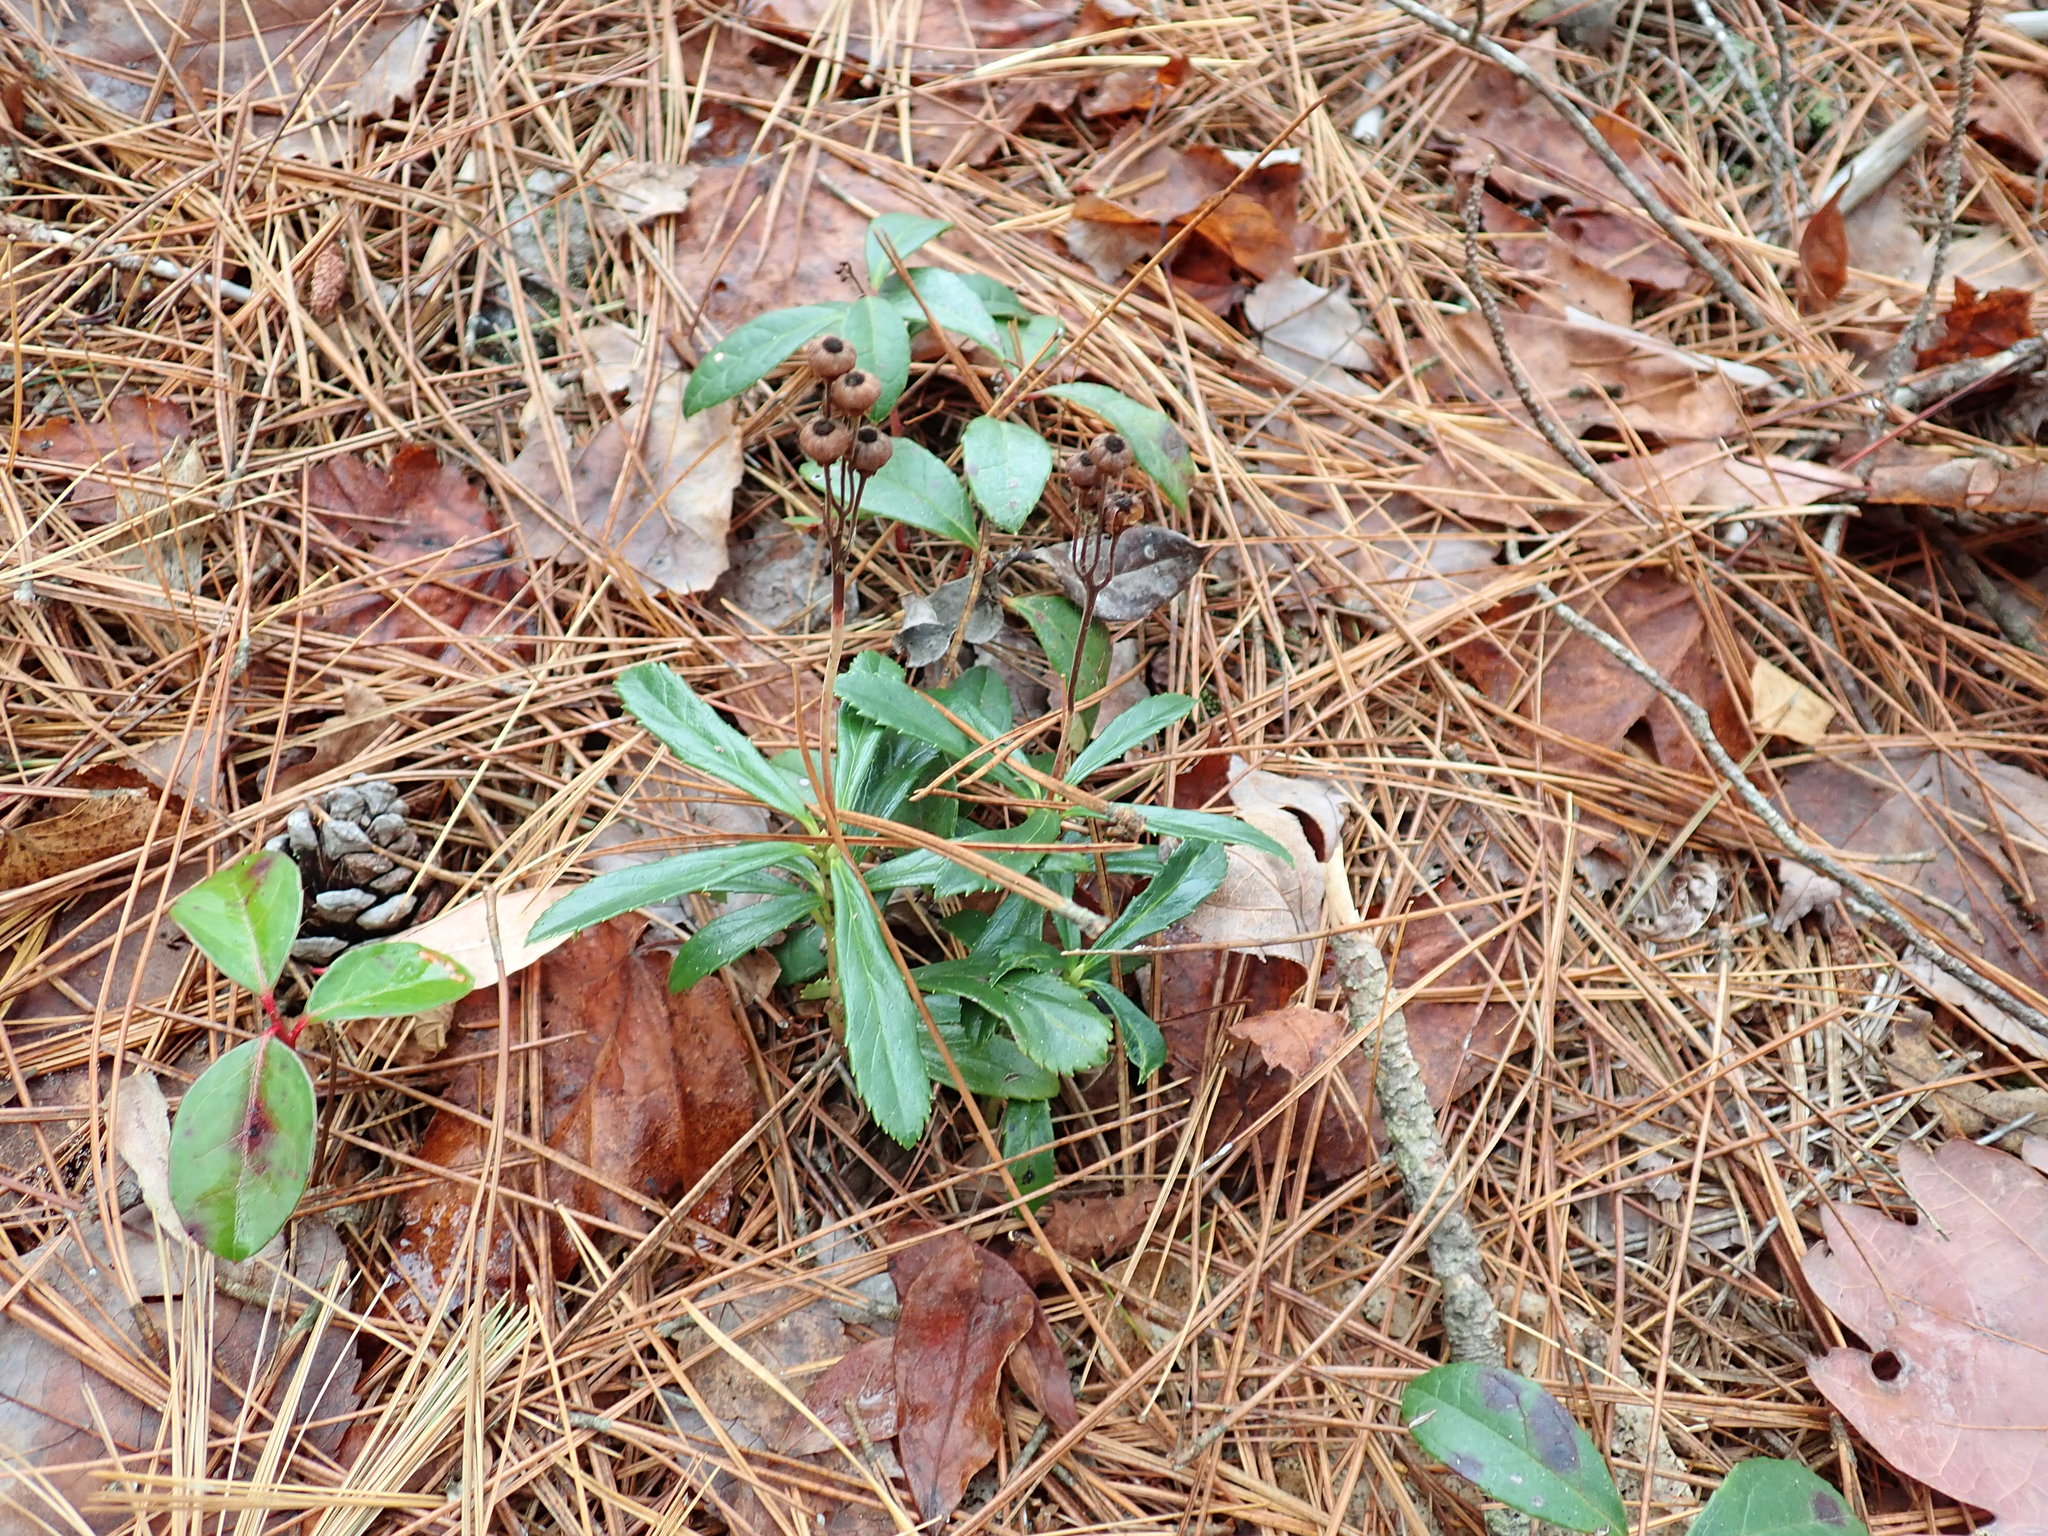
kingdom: Plantae
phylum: Tracheophyta
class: Magnoliopsida
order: Ericales
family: Ericaceae
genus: Chimaphila
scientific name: Chimaphila umbellata
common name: Pipsissewa
